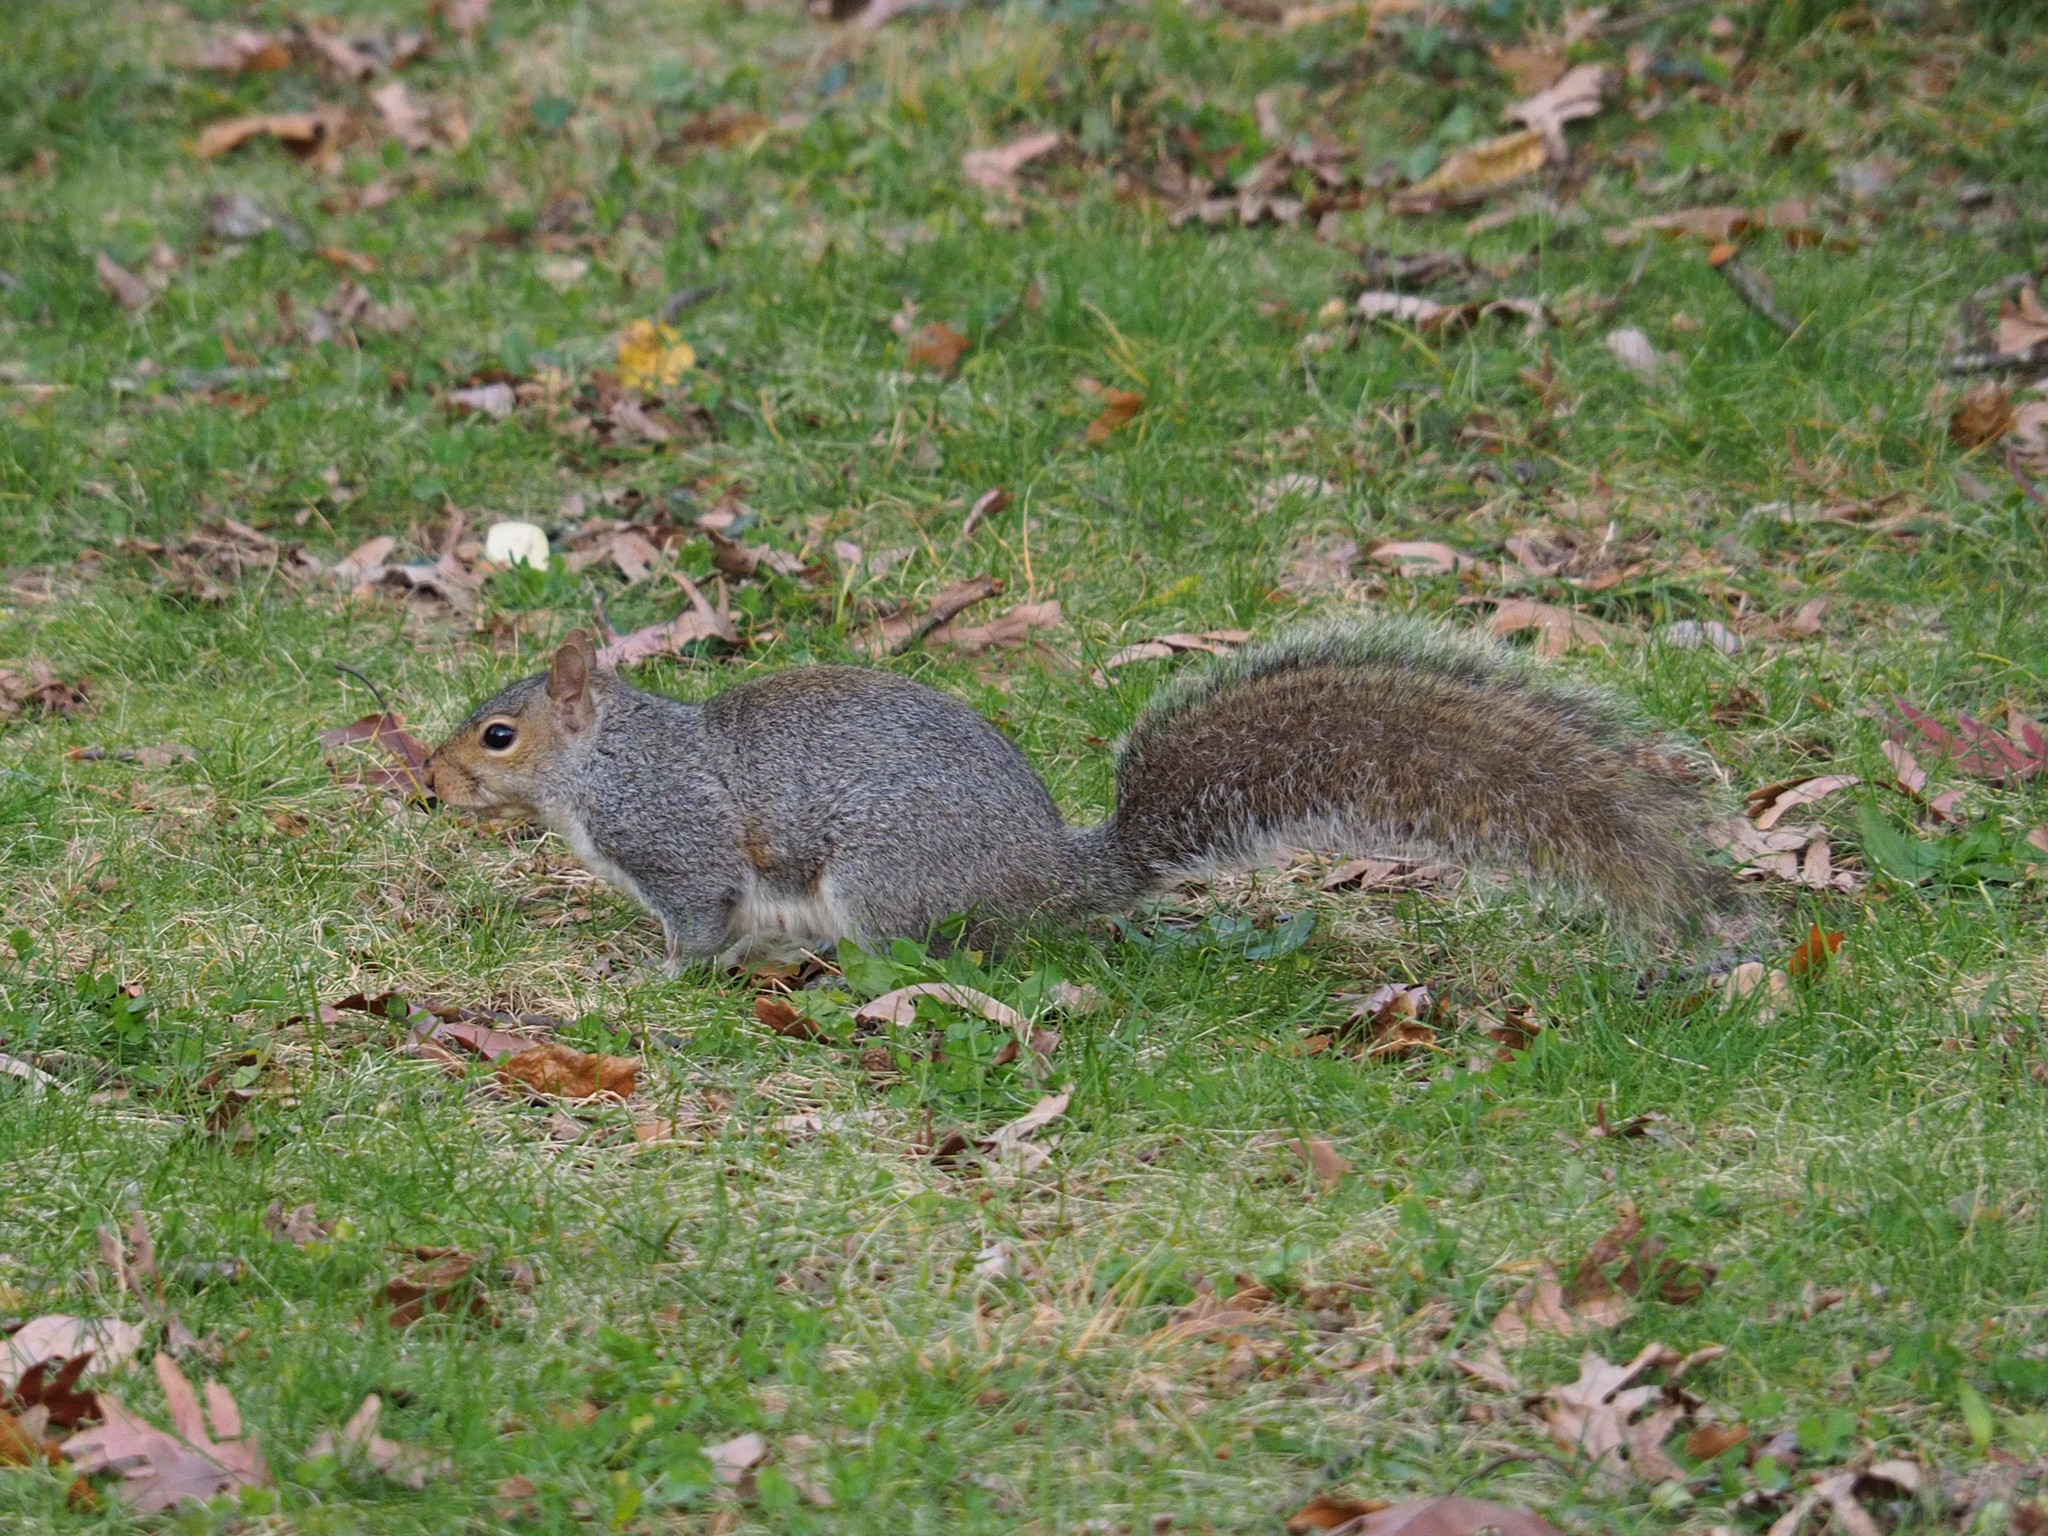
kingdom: Animalia
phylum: Chordata
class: Mammalia
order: Rodentia
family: Sciuridae
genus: Sciurus
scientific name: Sciurus carolinensis
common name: Eastern gray squirrel
